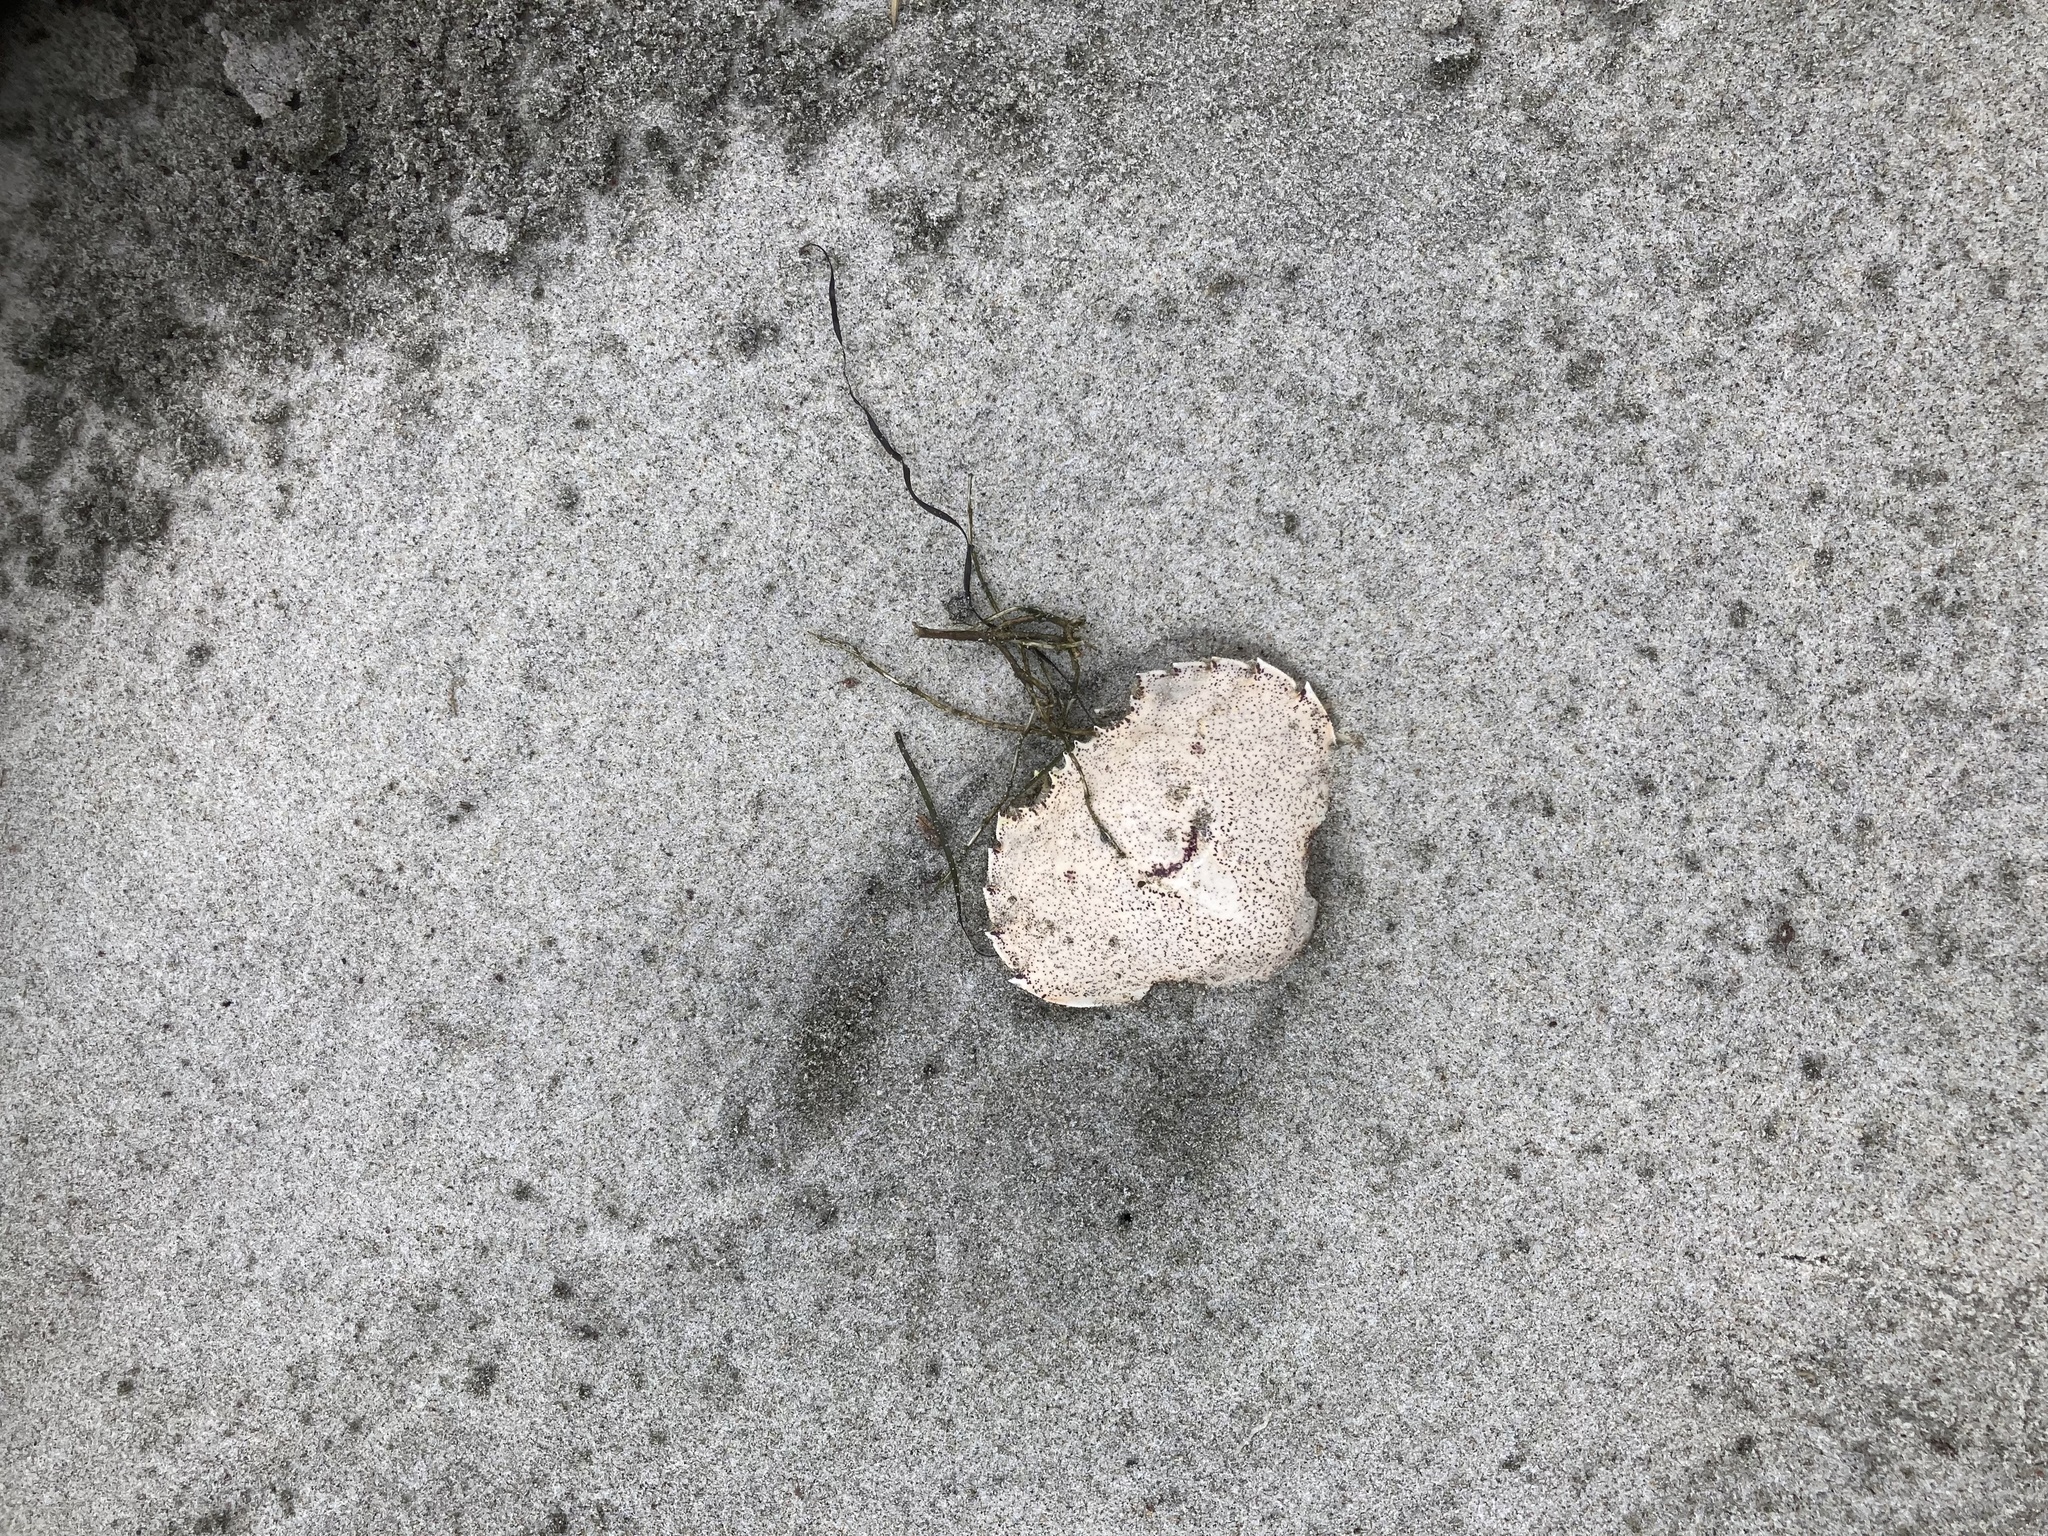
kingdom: Animalia
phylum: Arthropoda
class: Malacostraca
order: Decapoda
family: Ovalipidae
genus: Ovalipes
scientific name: Ovalipes catharus
